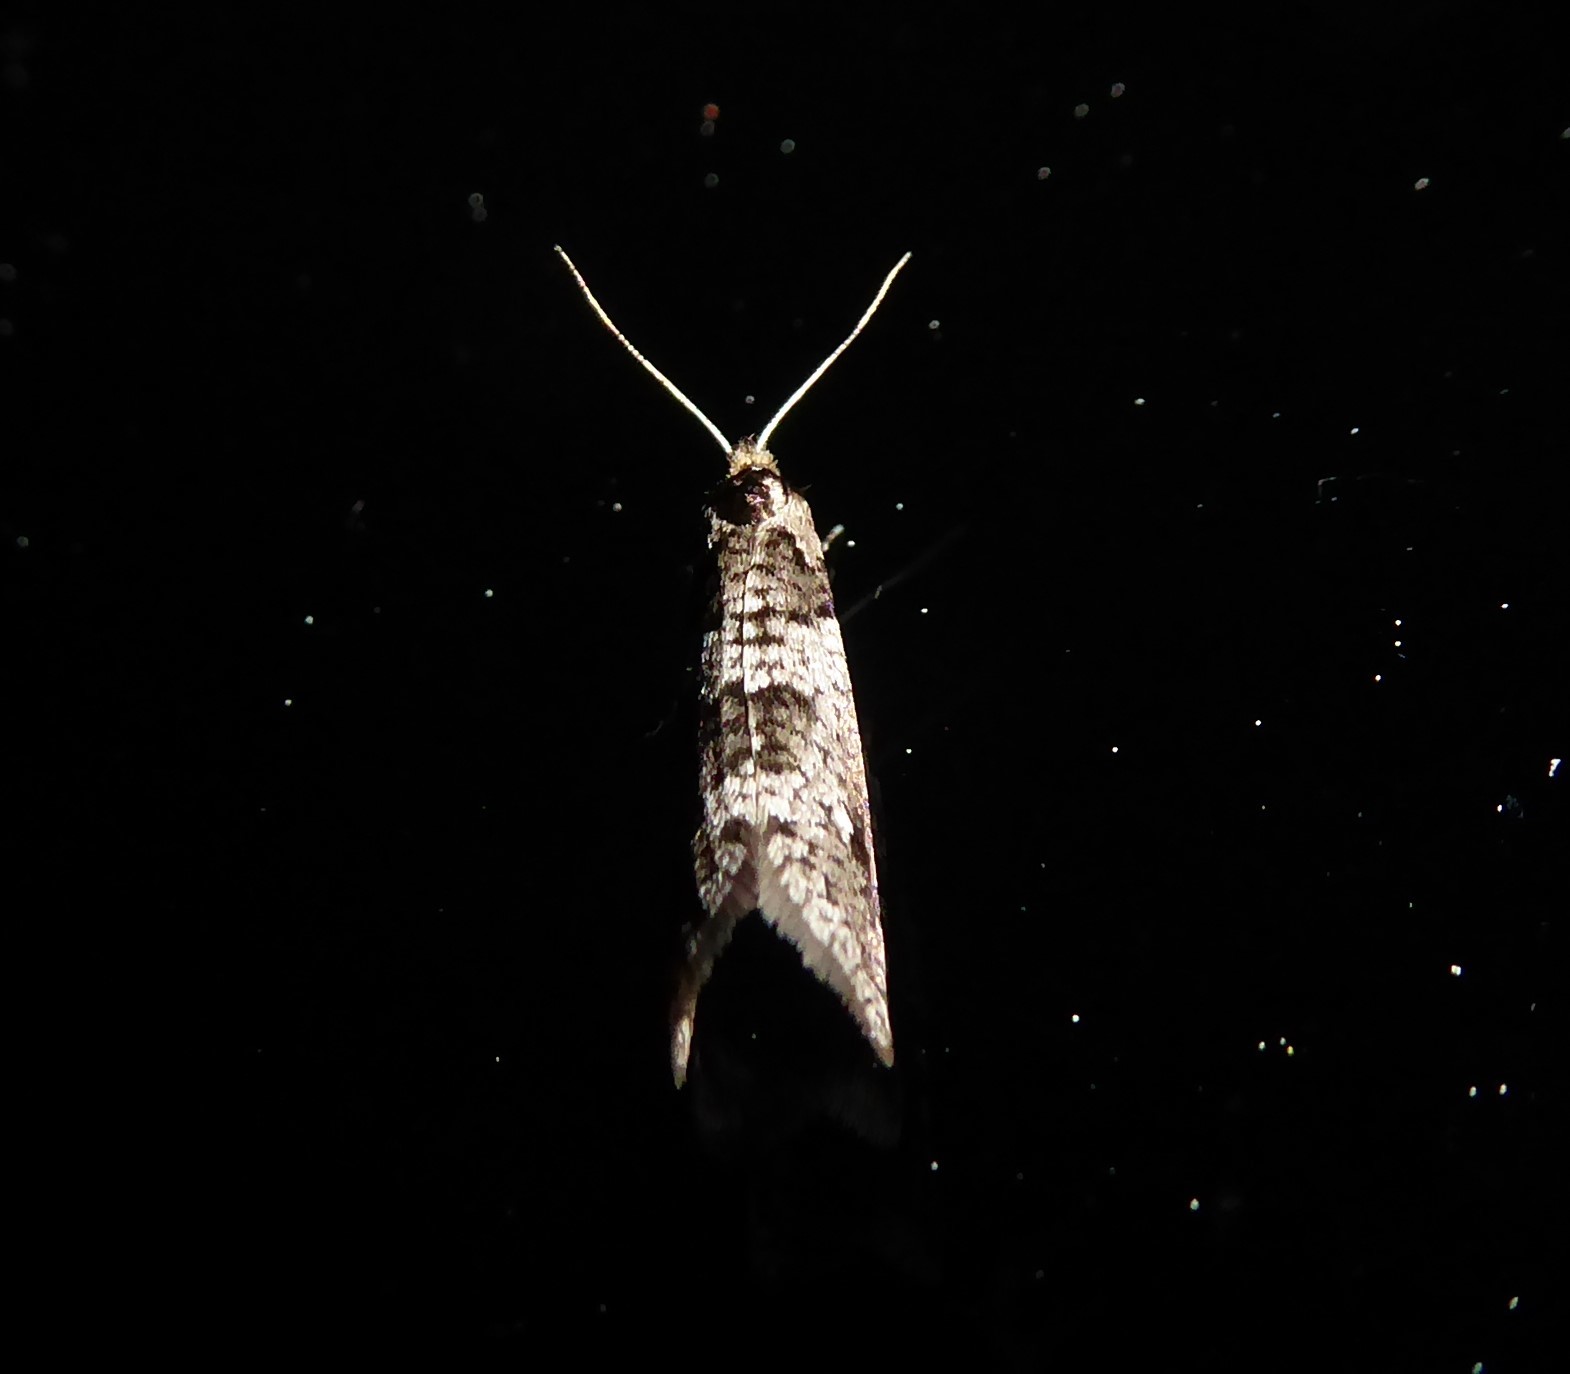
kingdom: Animalia
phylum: Arthropoda
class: Insecta
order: Lepidoptera
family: Psychidae
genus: Lepidoscia
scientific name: Lepidoscia heliochares
